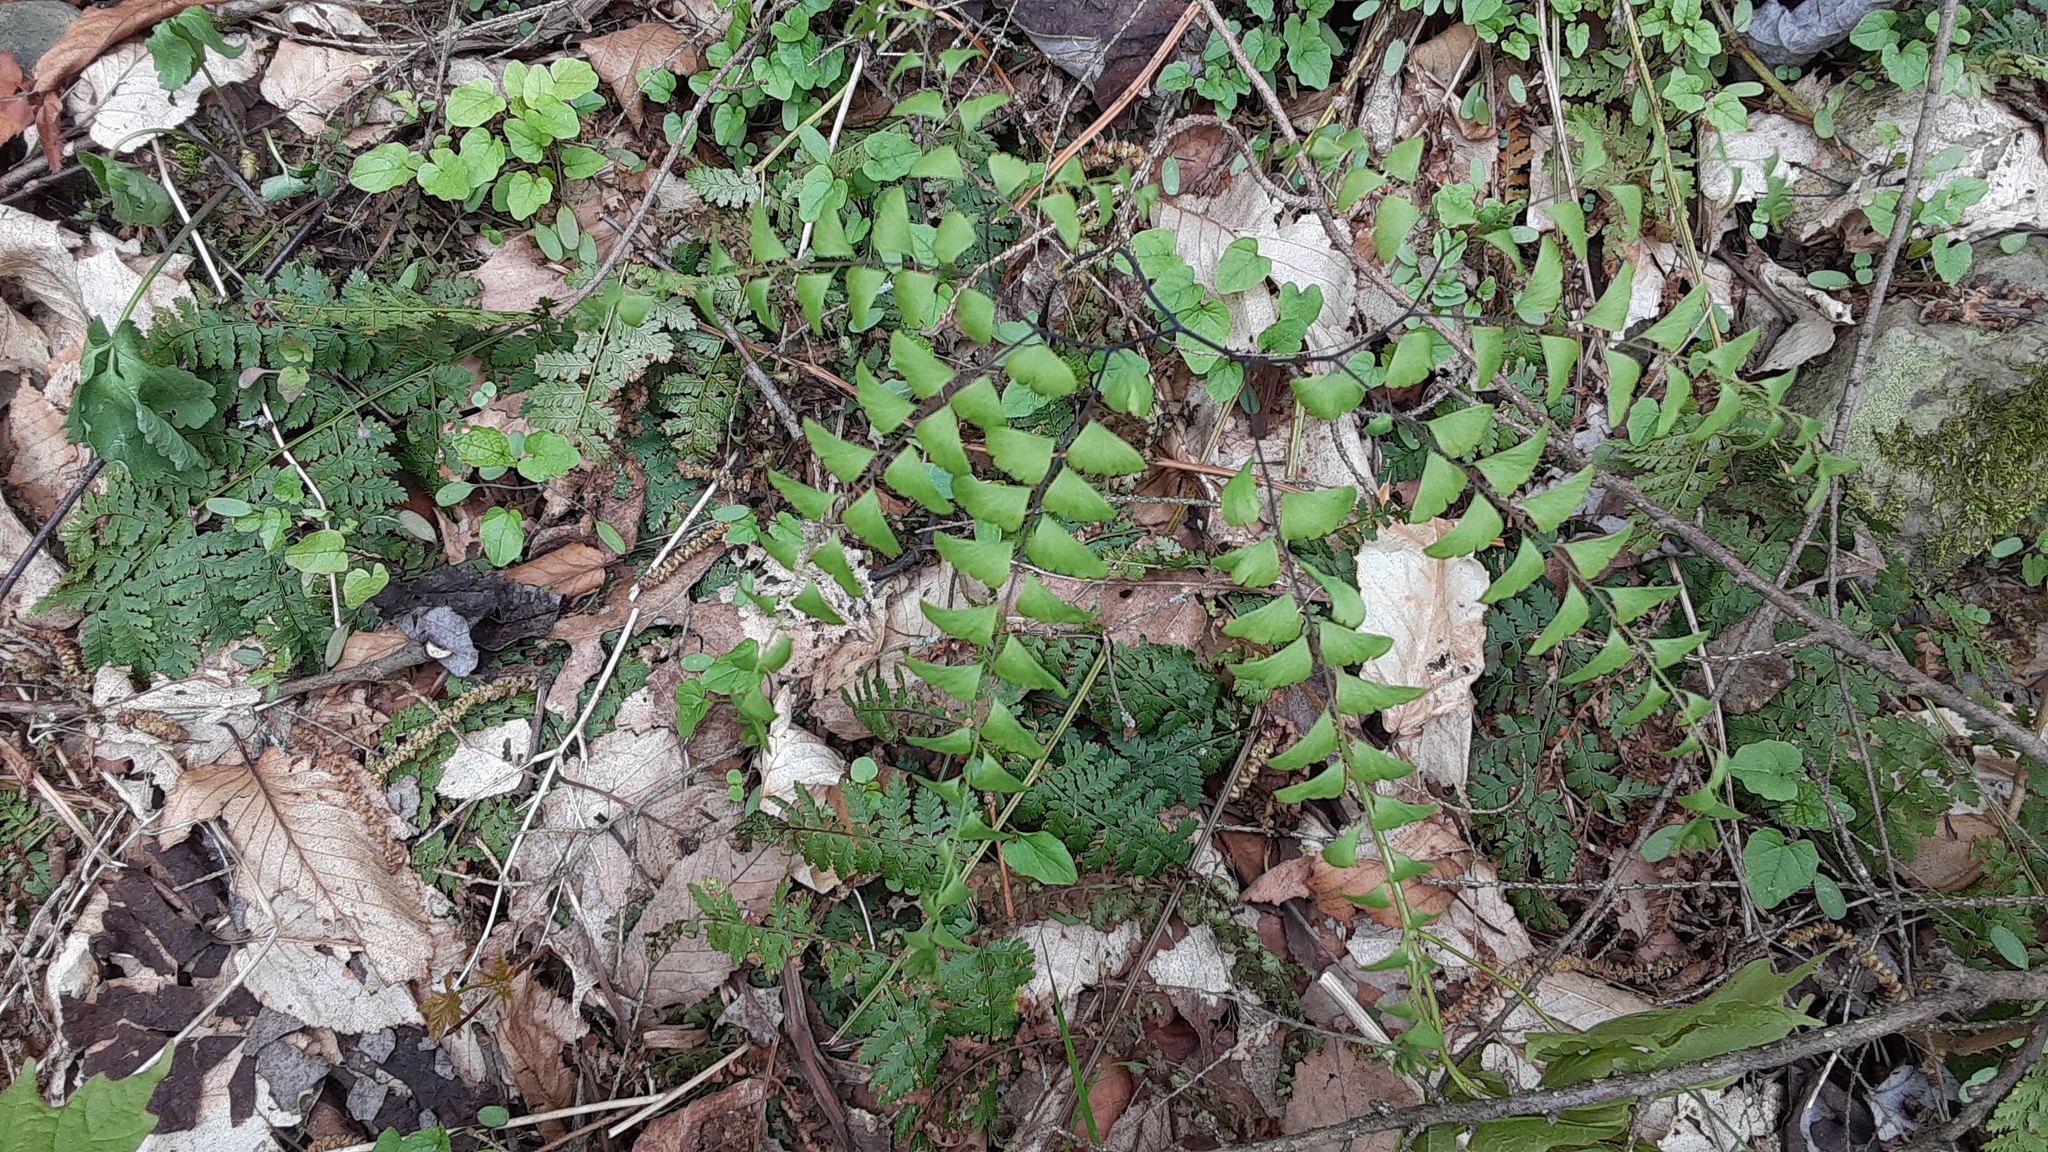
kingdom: Plantae
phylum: Tracheophyta
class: Polypodiopsida
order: Polypodiales
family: Pteridaceae
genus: Adiantum
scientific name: Adiantum pedatum
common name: Five-finger fern
